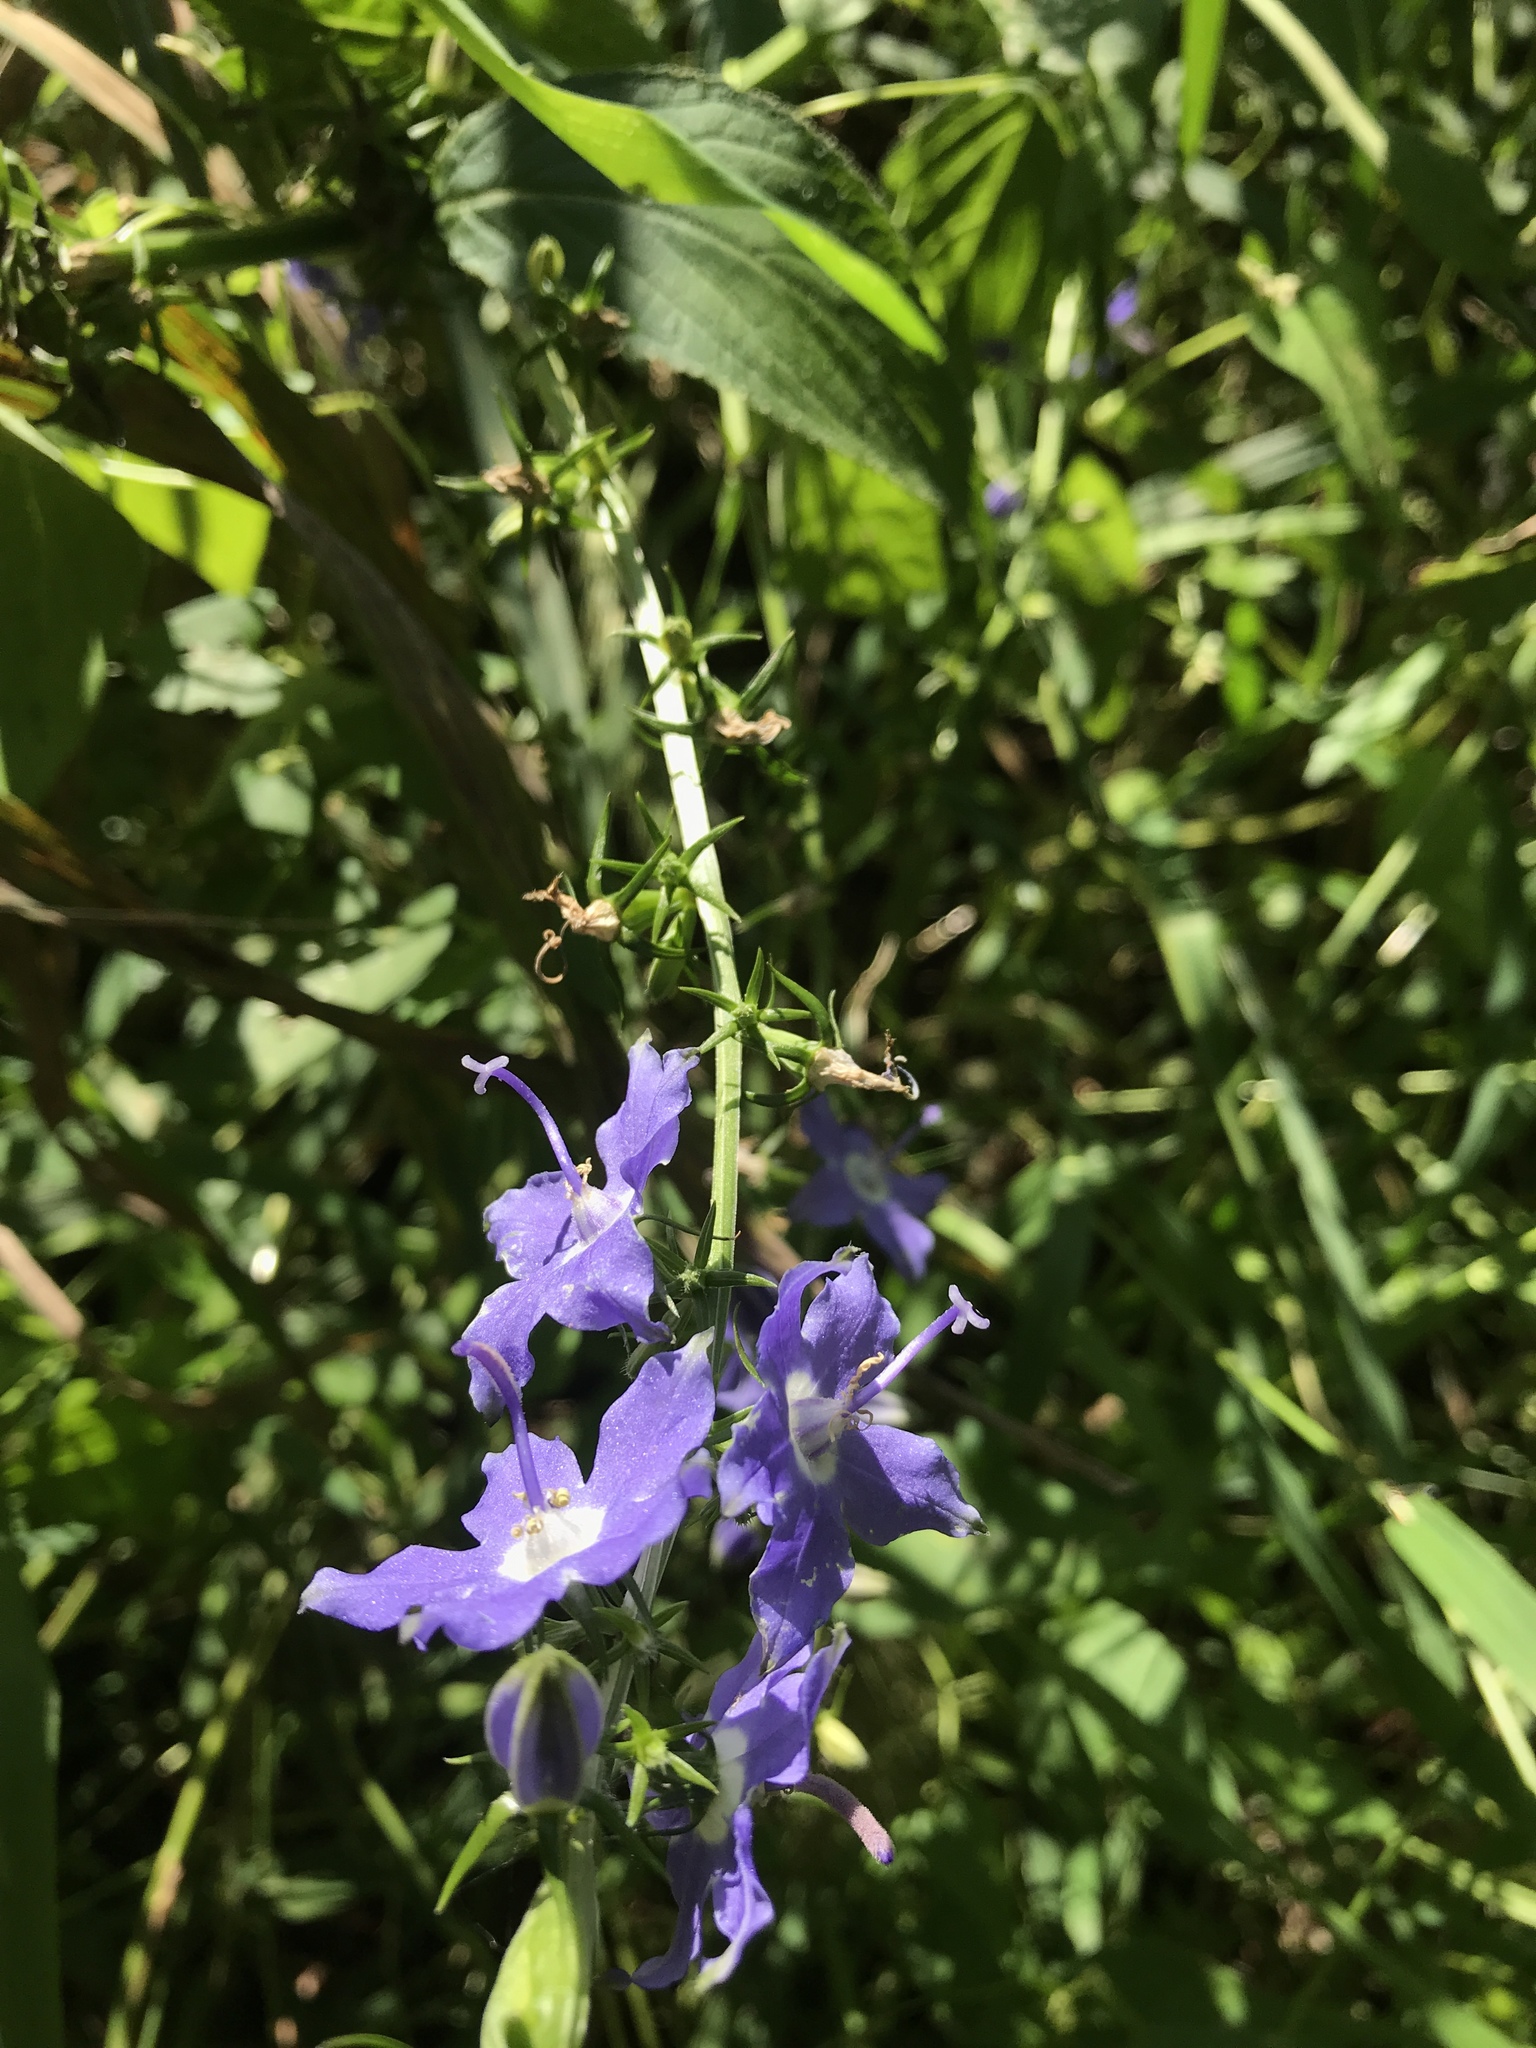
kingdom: Plantae
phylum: Tracheophyta
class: Magnoliopsida
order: Asterales
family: Campanulaceae
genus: Campanulastrum
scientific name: Campanulastrum americanum
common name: American bellflower
